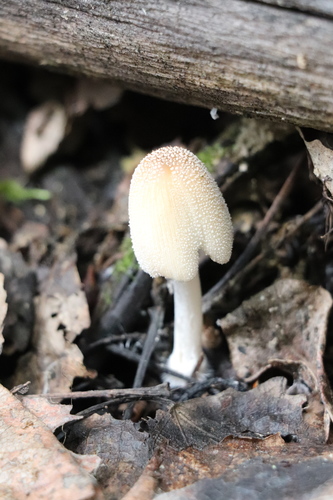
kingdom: Fungi
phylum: Basidiomycota
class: Agaricomycetes
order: Agaricales
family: Psathyrellaceae
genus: Coprinellus
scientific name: Coprinellus domesticus
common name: Firerug inkcap
